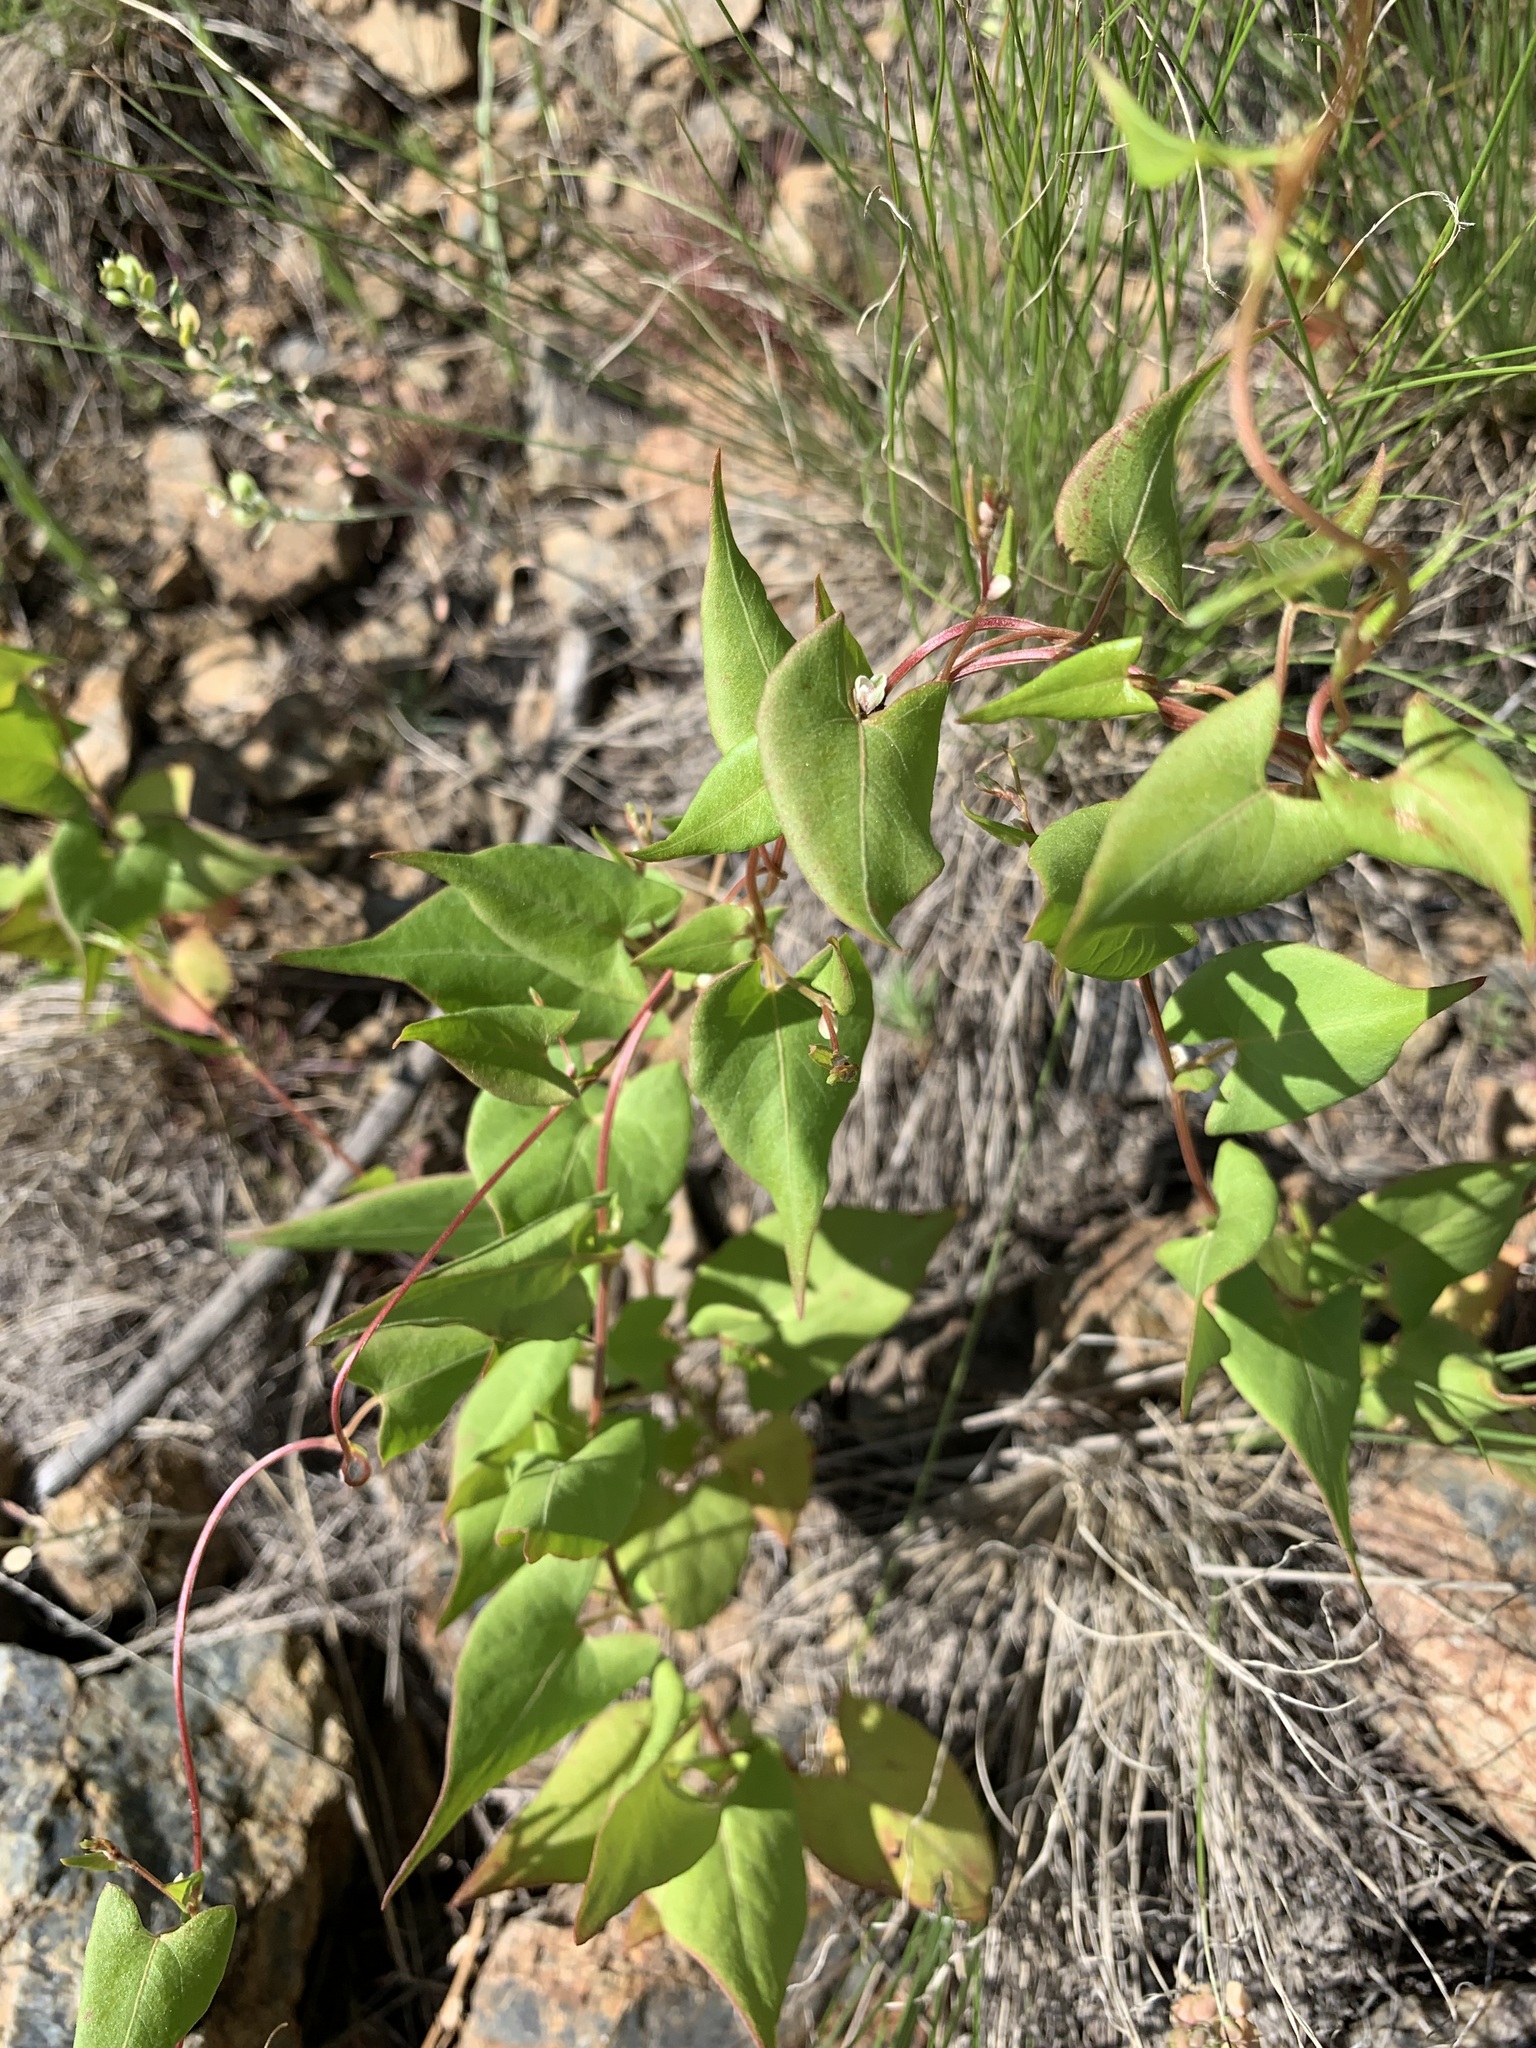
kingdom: Plantae
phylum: Tracheophyta
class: Magnoliopsida
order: Caryophyllales
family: Polygonaceae
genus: Fallopia
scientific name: Fallopia convolvulus
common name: Black bindweed
